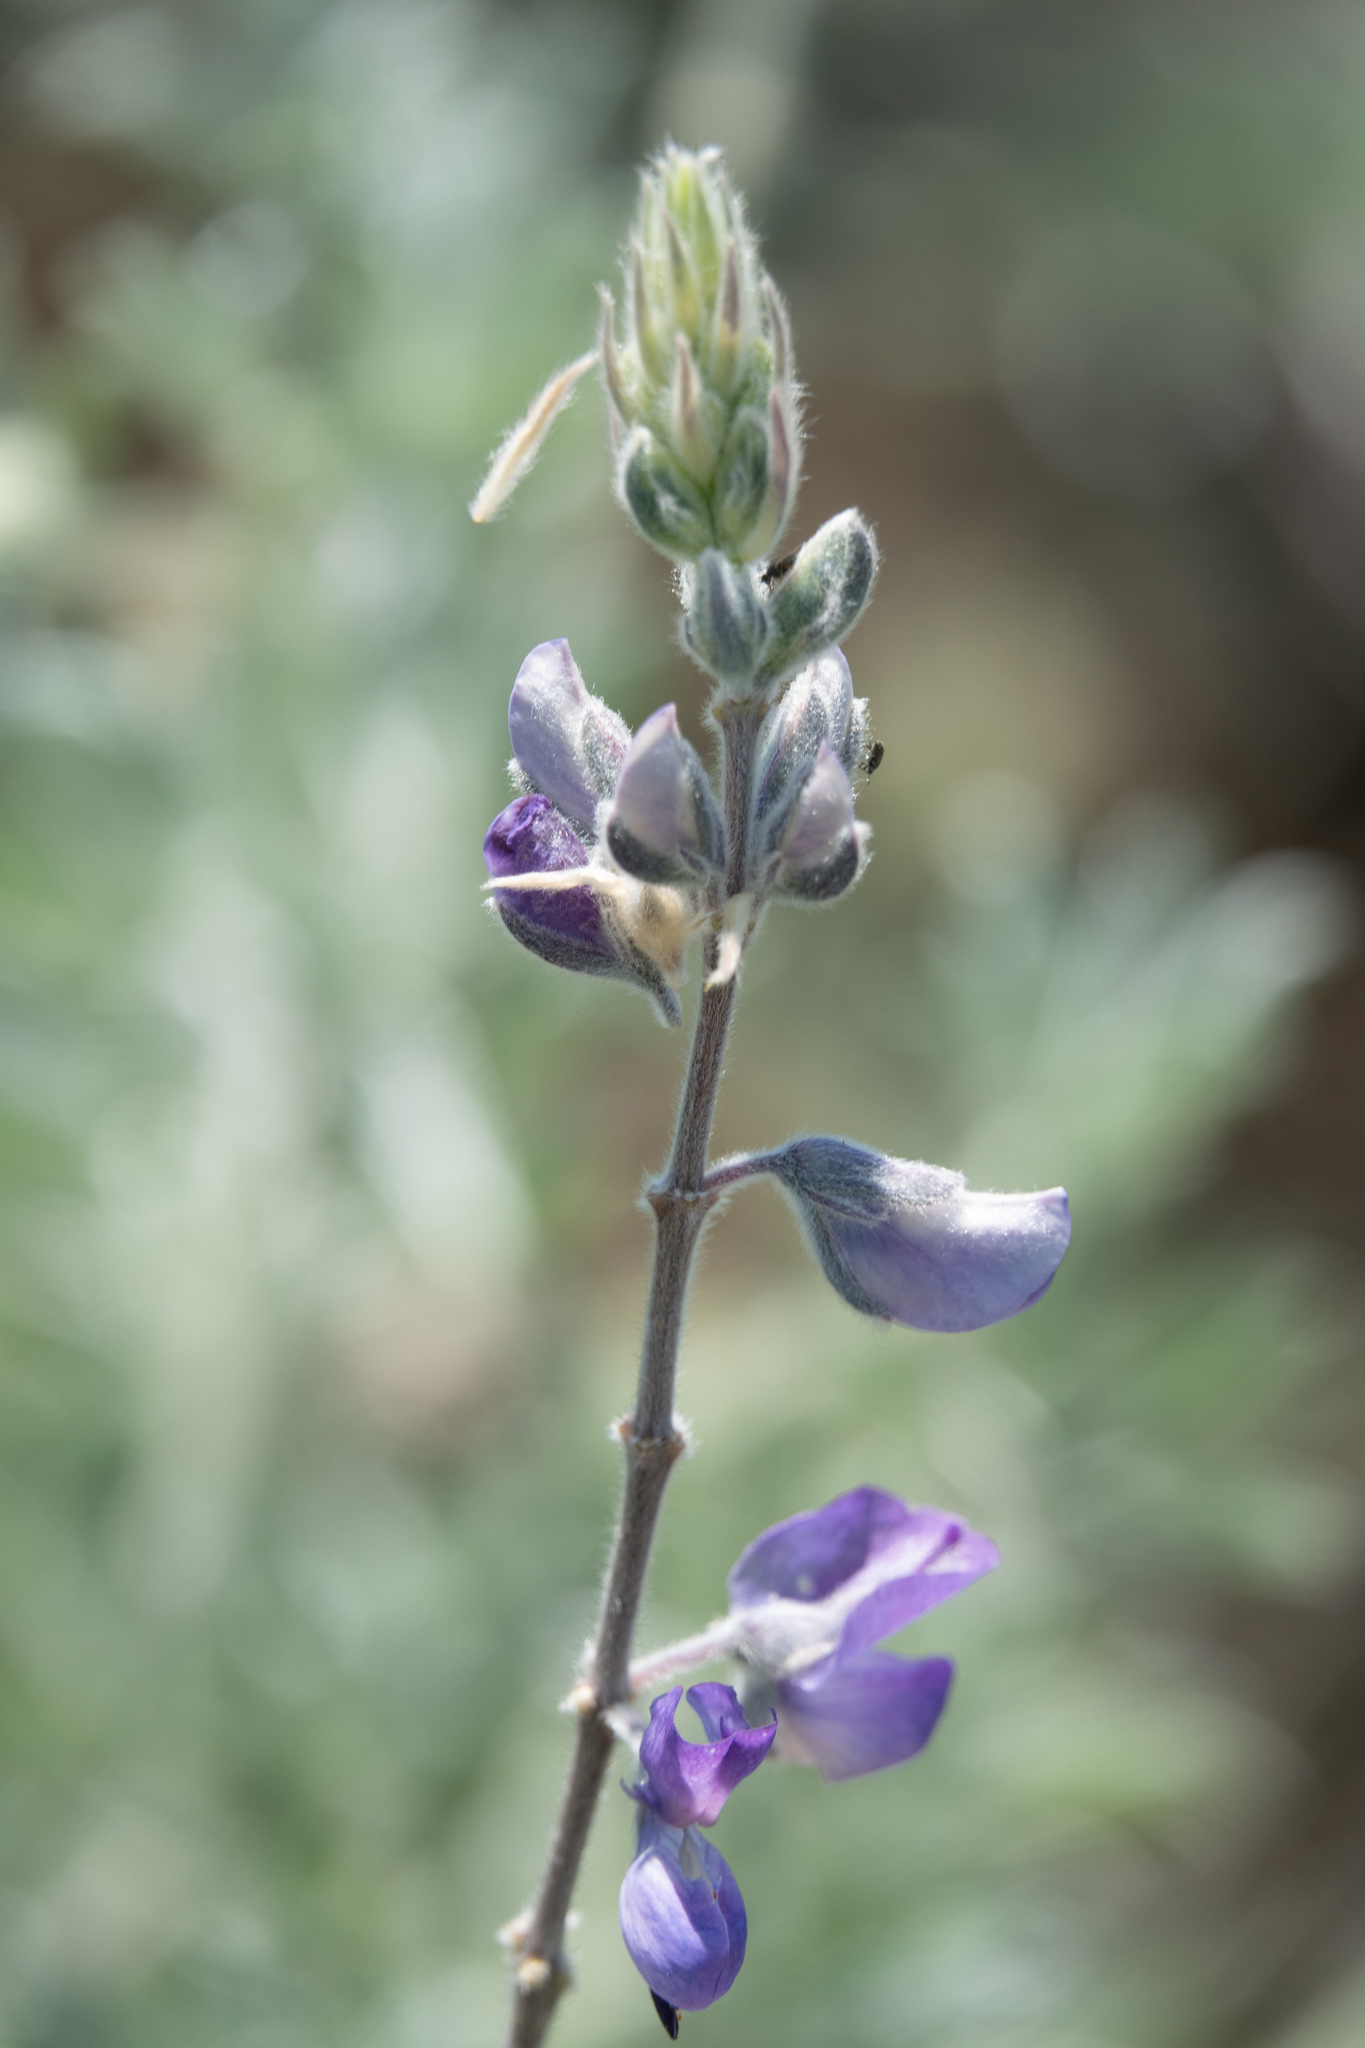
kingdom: Plantae
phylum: Tracheophyta
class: Magnoliopsida
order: Fabales
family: Fabaceae
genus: Lupinus
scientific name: Lupinus chamissonis
